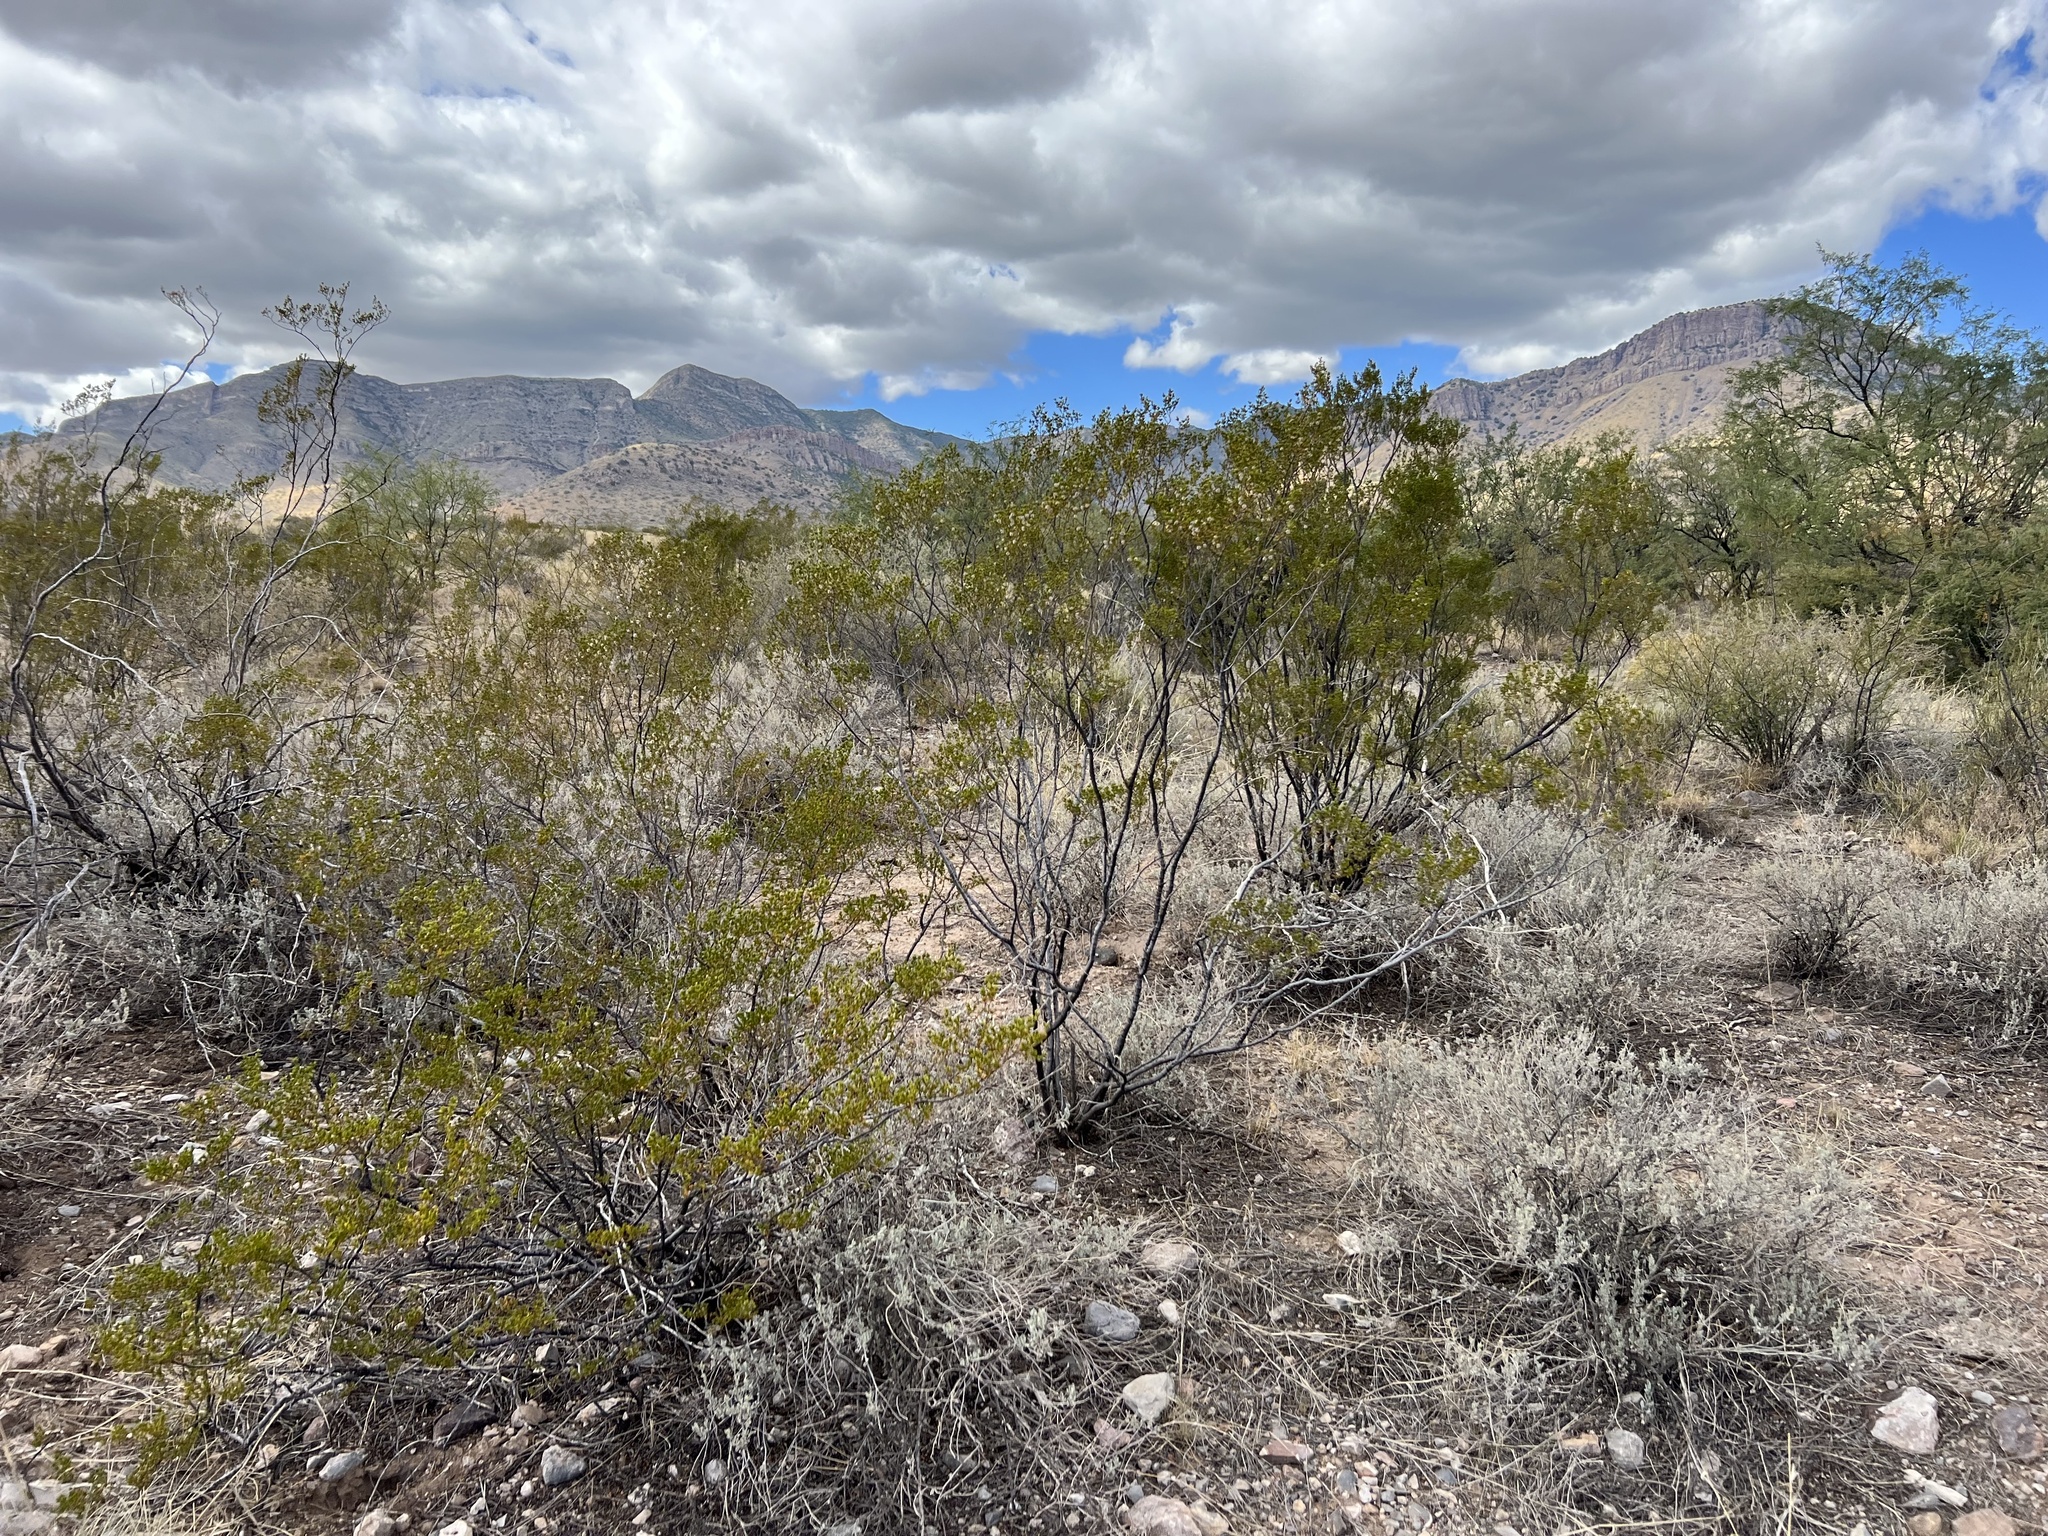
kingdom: Plantae
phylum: Tracheophyta
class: Magnoliopsida
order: Zygophyllales
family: Zygophyllaceae
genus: Larrea
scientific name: Larrea tridentata
